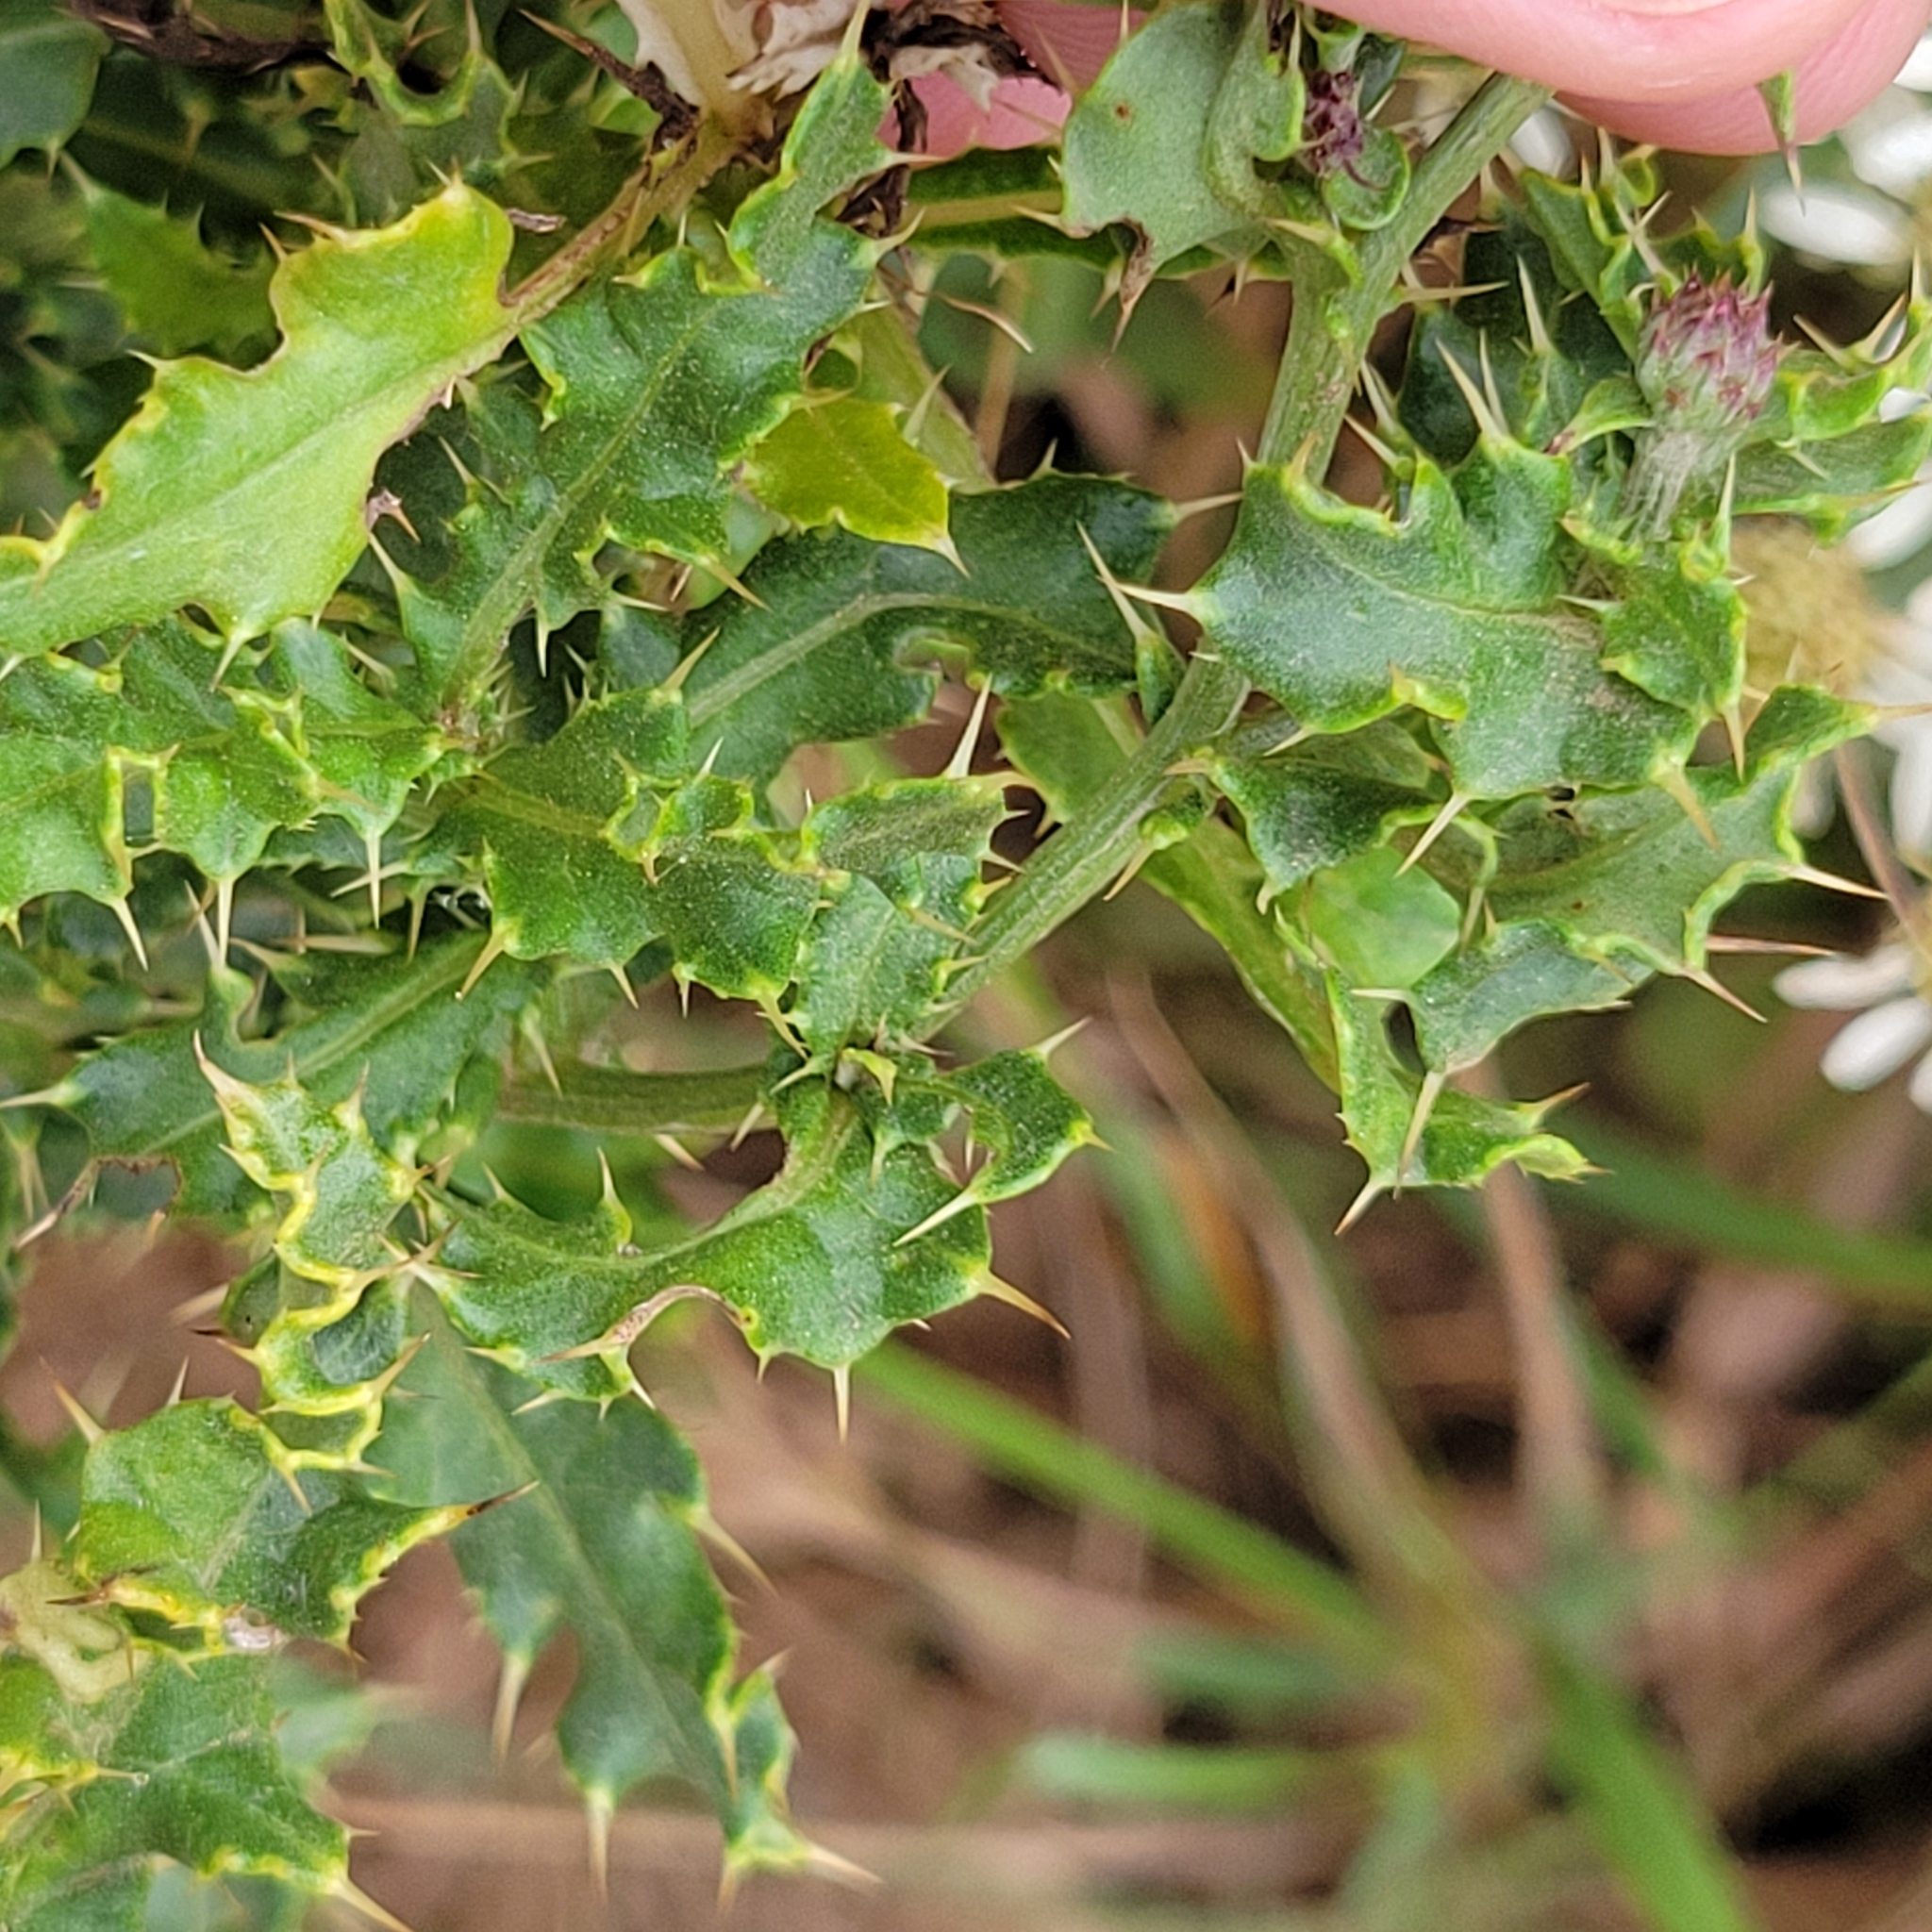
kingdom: Plantae
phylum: Tracheophyta
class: Magnoliopsida
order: Asterales
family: Asteraceae
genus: Cirsium
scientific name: Cirsium arvense
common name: Creeping thistle
